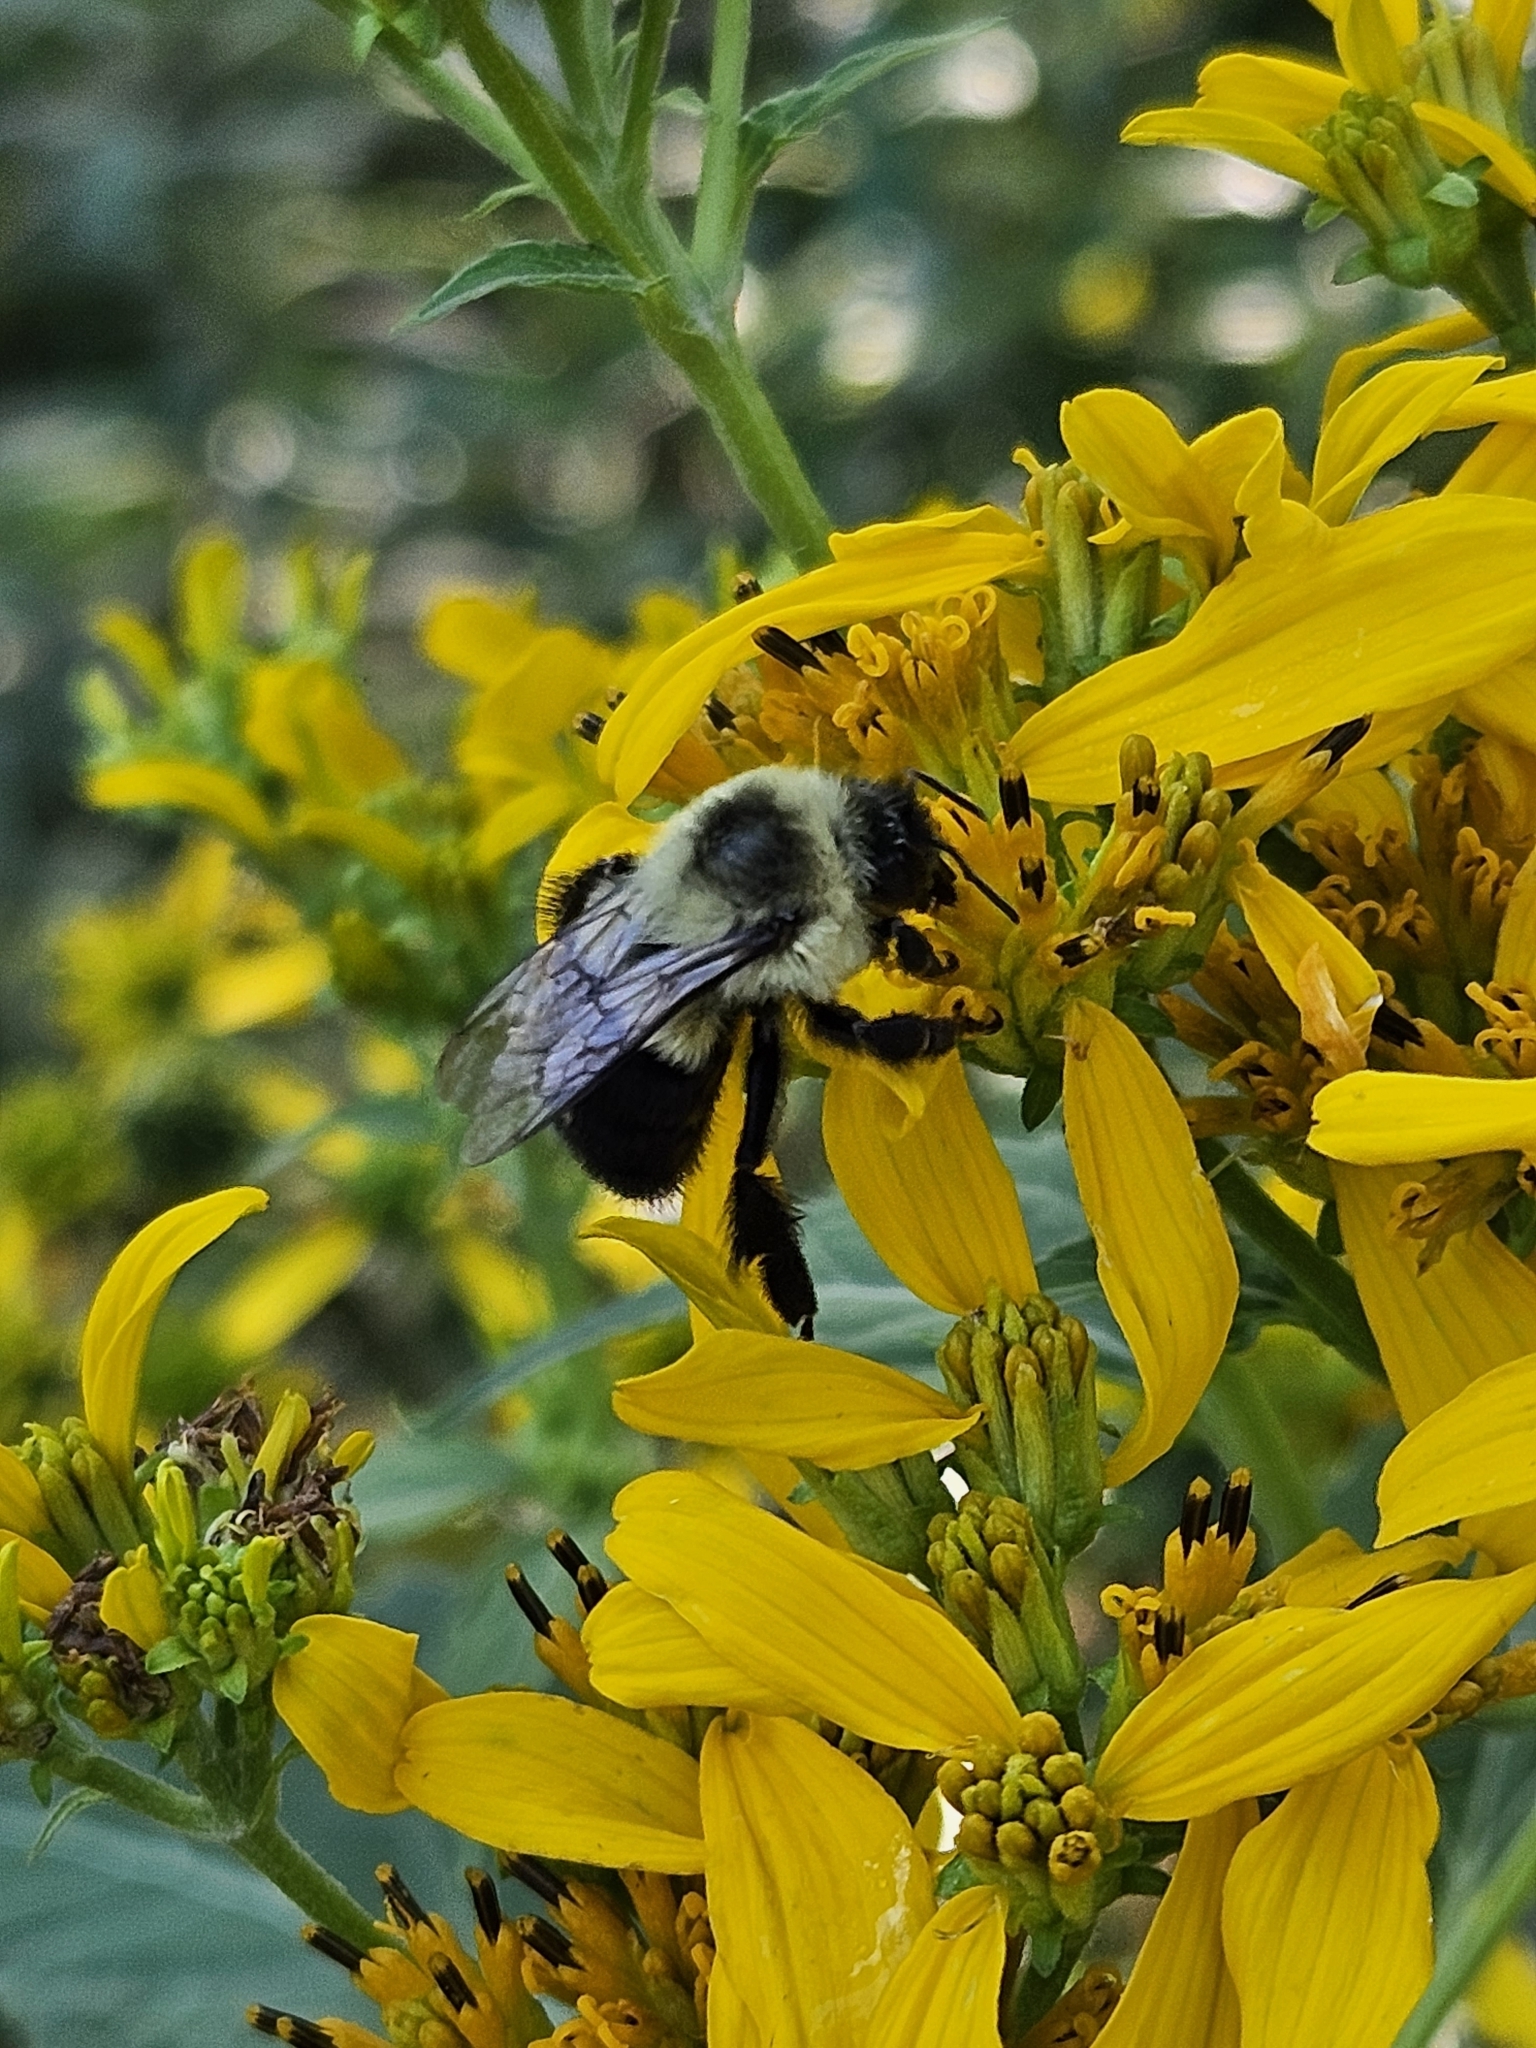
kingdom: Animalia
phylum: Arthropoda
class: Insecta
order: Hymenoptera
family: Apidae
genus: Bombus
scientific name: Bombus impatiens
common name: Common eastern bumble bee
